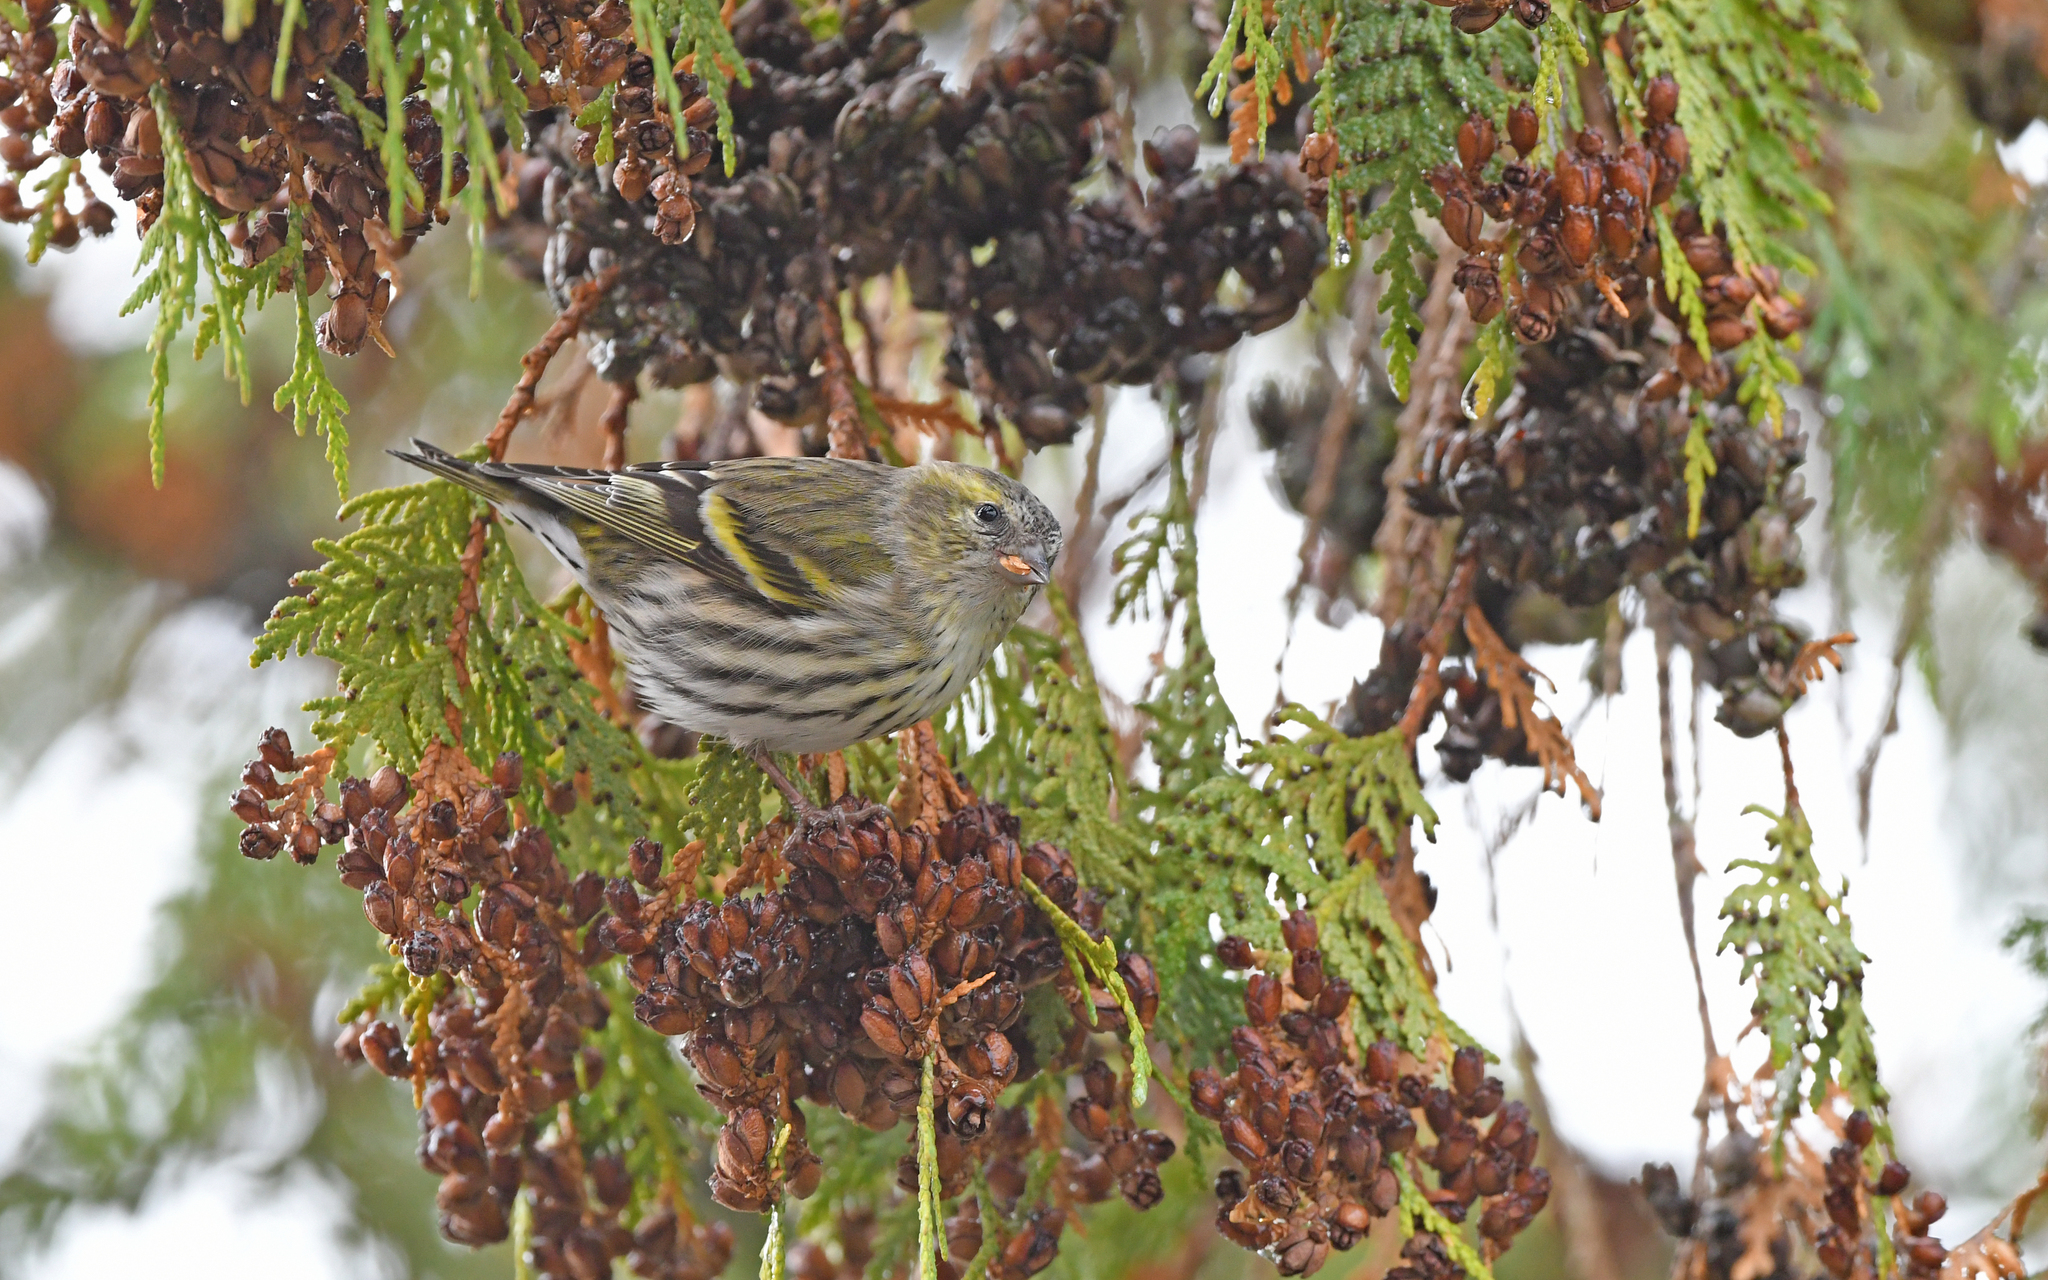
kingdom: Animalia
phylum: Chordata
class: Aves
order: Passeriformes
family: Fringillidae
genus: Spinus
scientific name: Spinus spinus
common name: Eurasian siskin
